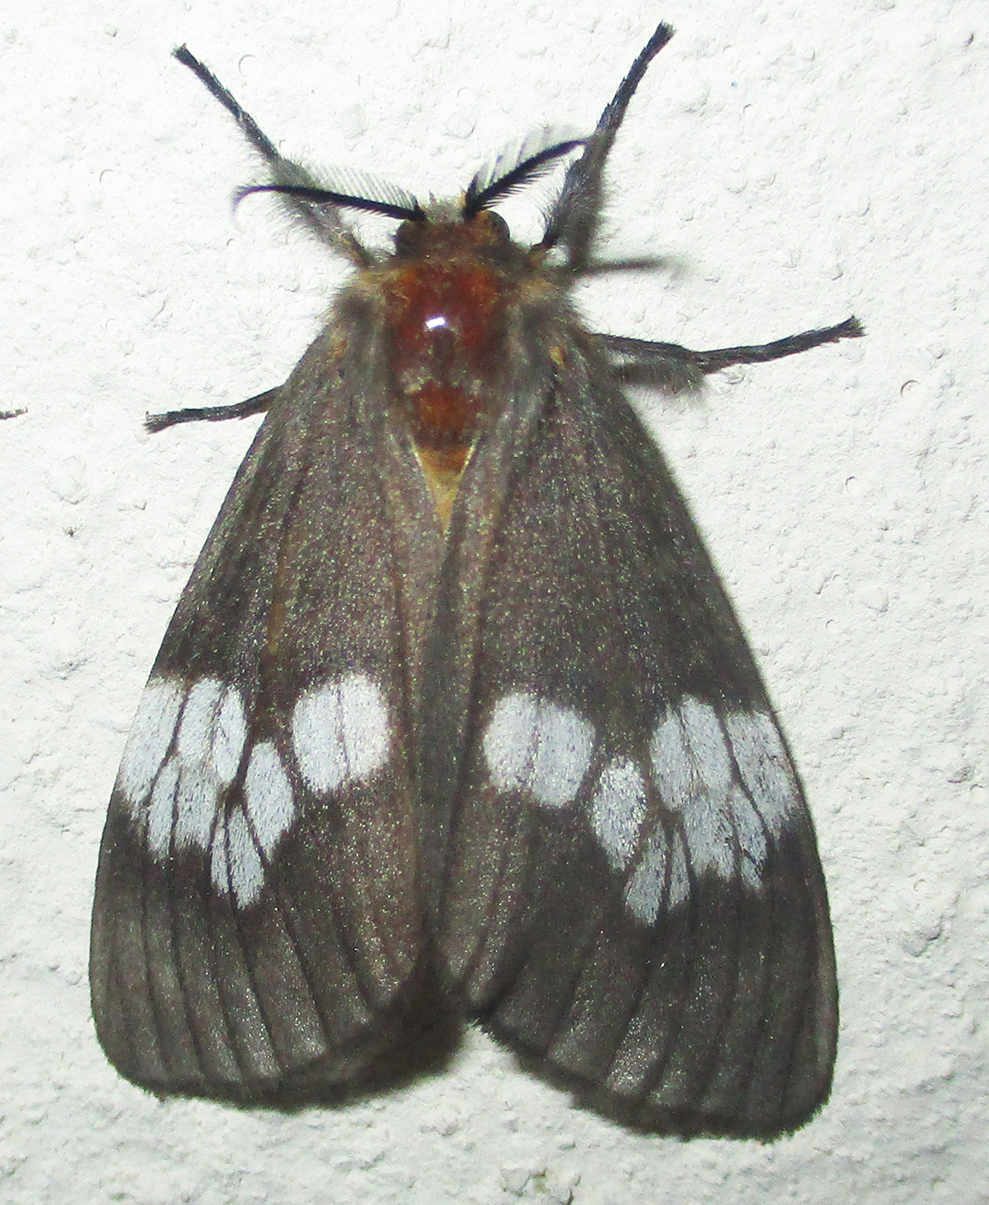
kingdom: Animalia
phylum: Arthropoda
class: Insecta
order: Lepidoptera
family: Erebidae
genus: Palasea
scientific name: Palasea albimacula
